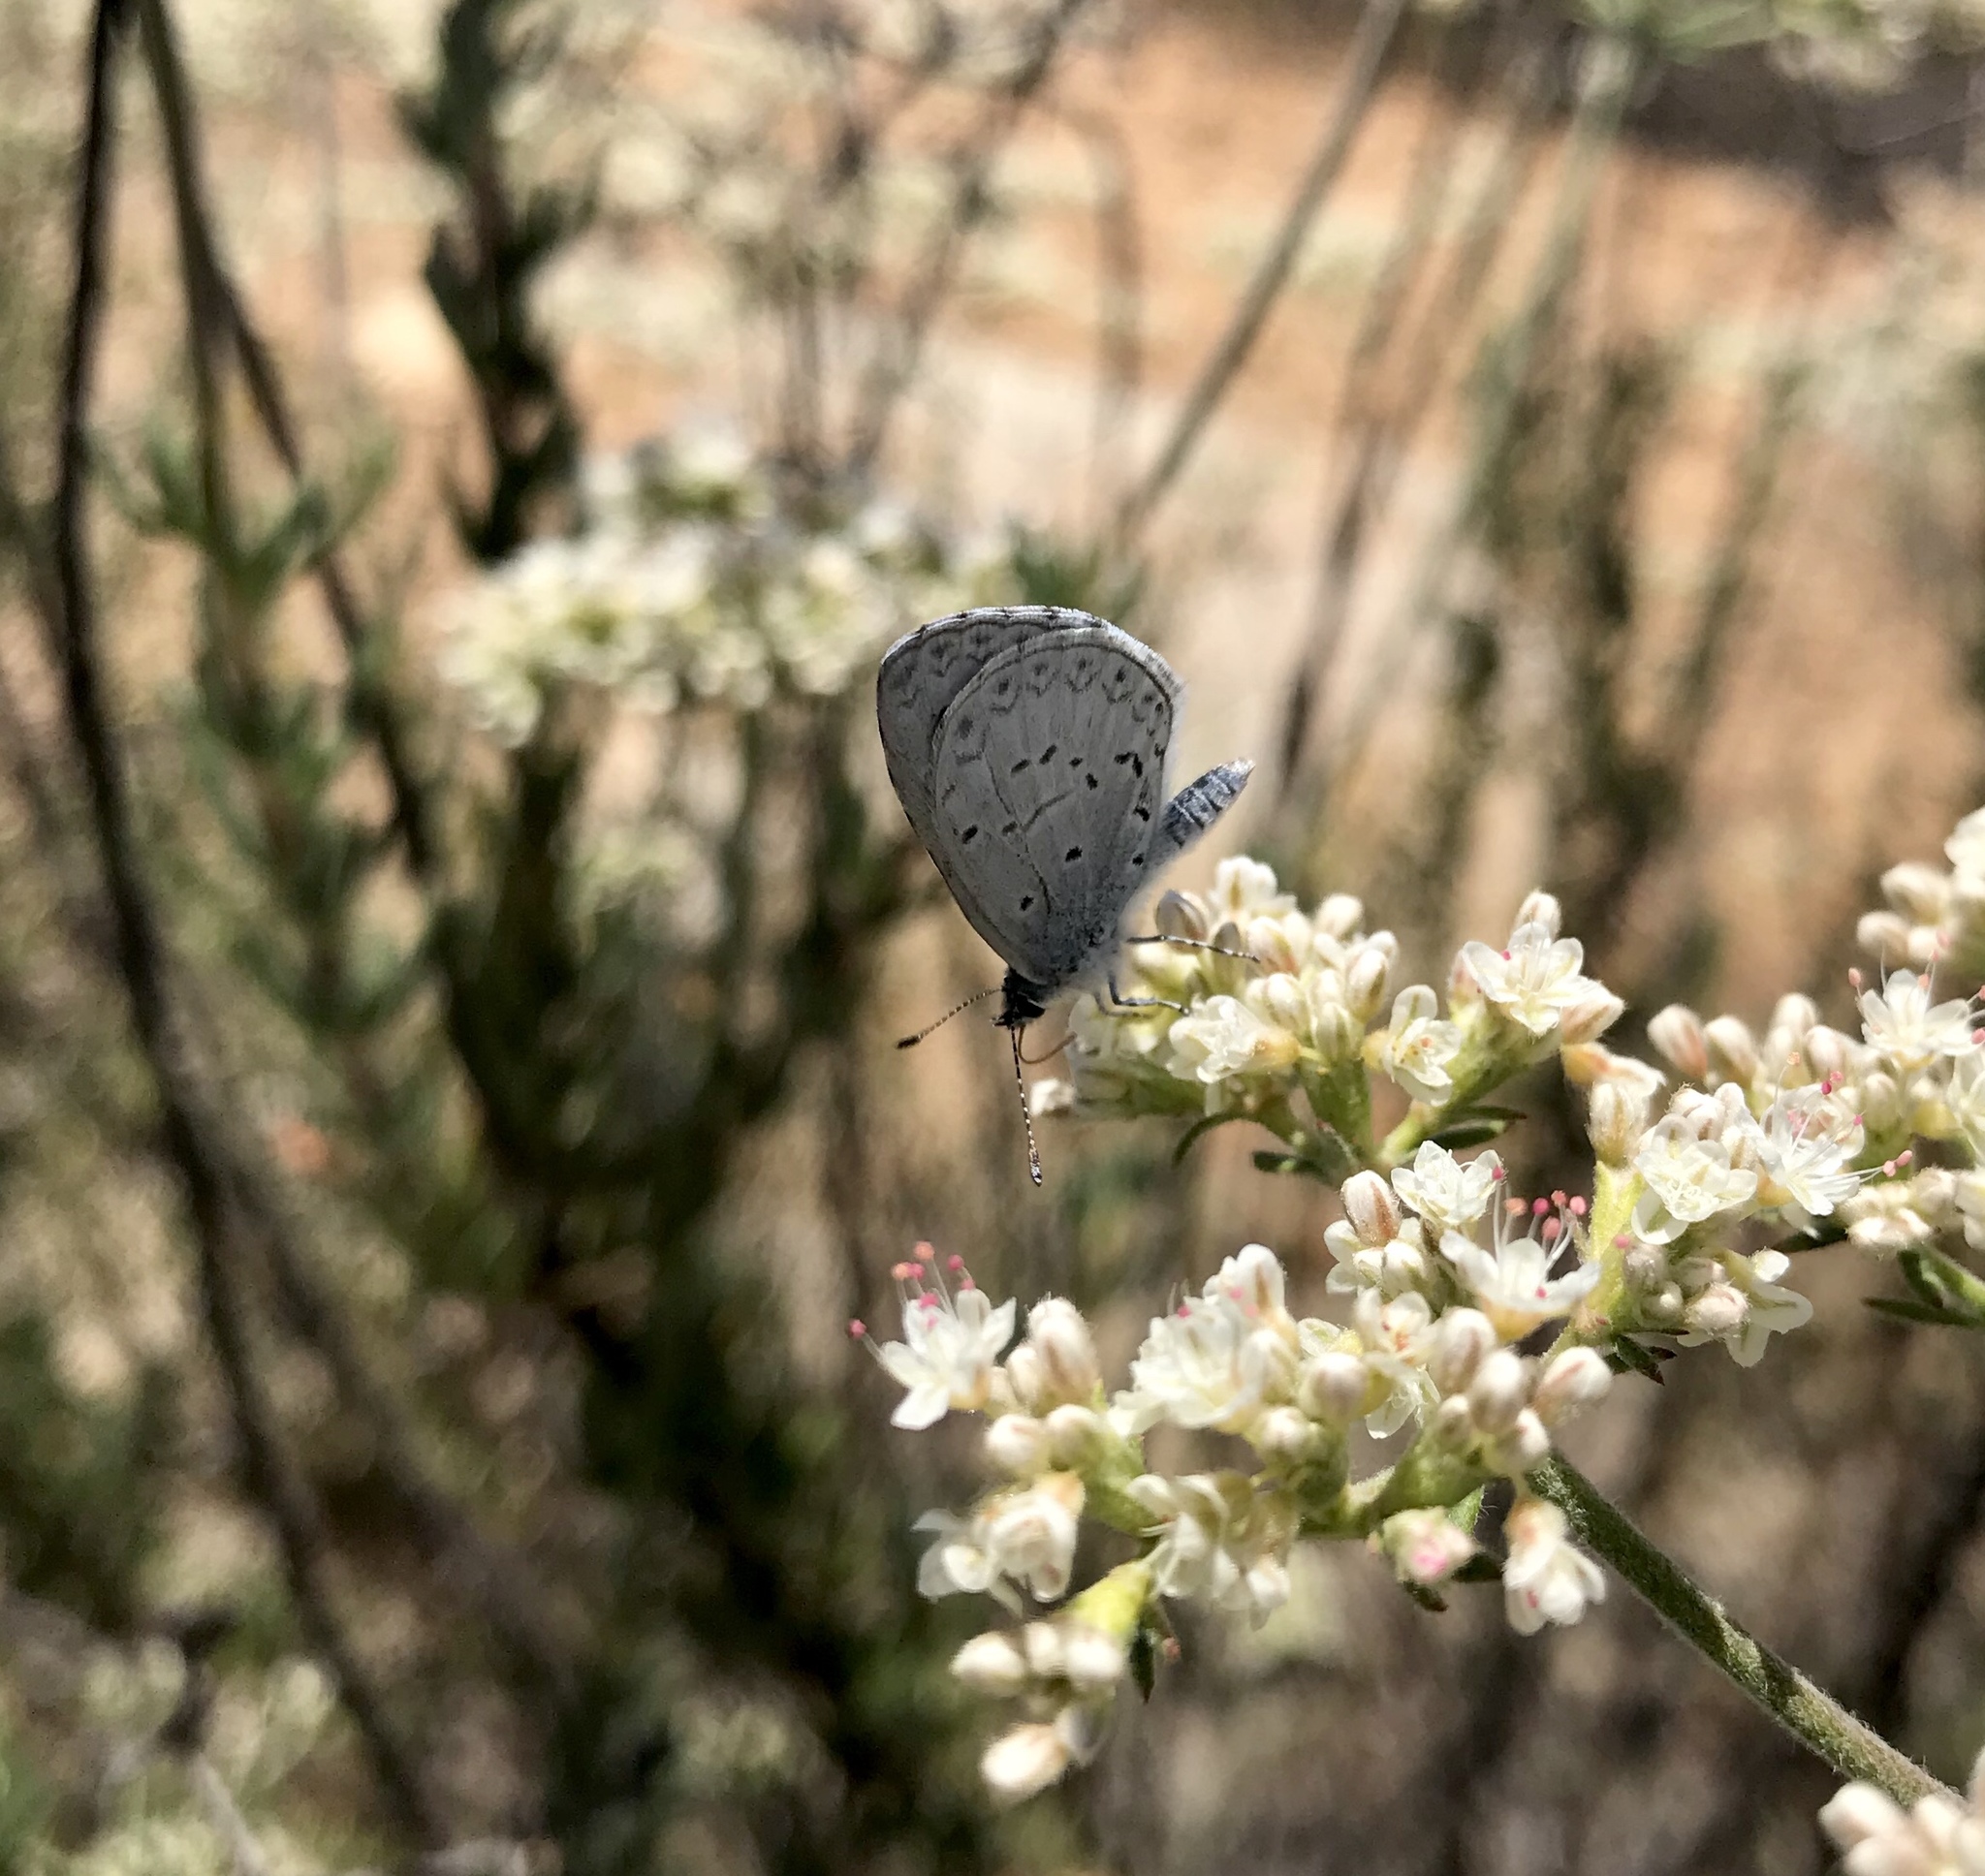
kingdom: Animalia
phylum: Arthropoda
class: Insecta
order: Lepidoptera
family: Lycaenidae
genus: Celastrina
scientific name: Celastrina ladon
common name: Spring azure
